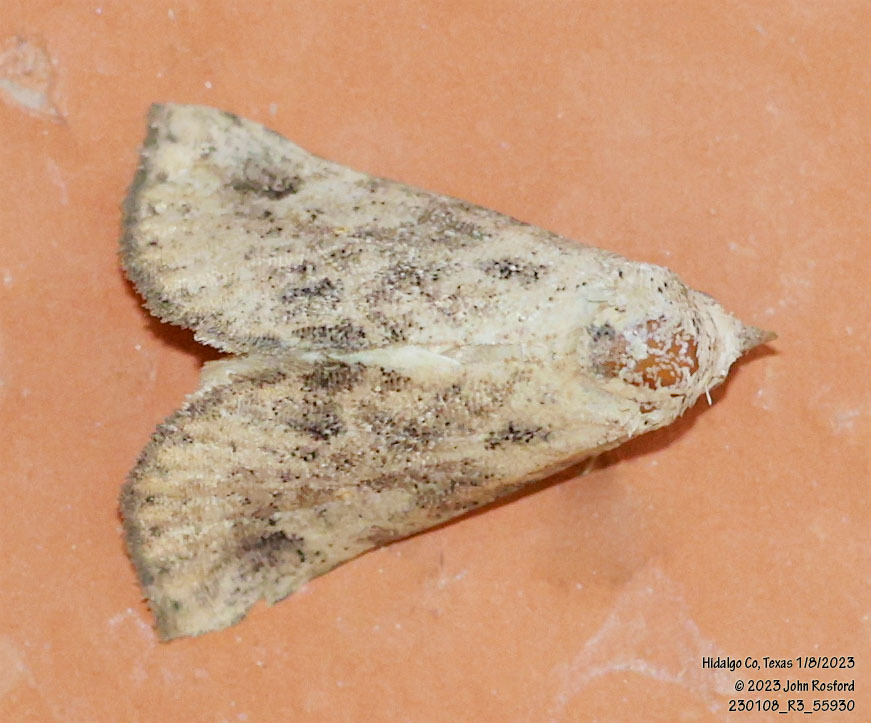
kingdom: Animalia
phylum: Arthropoda
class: Insecta
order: Lepidoptera
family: Erebidae
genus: Isogona
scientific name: Isogona snowi
